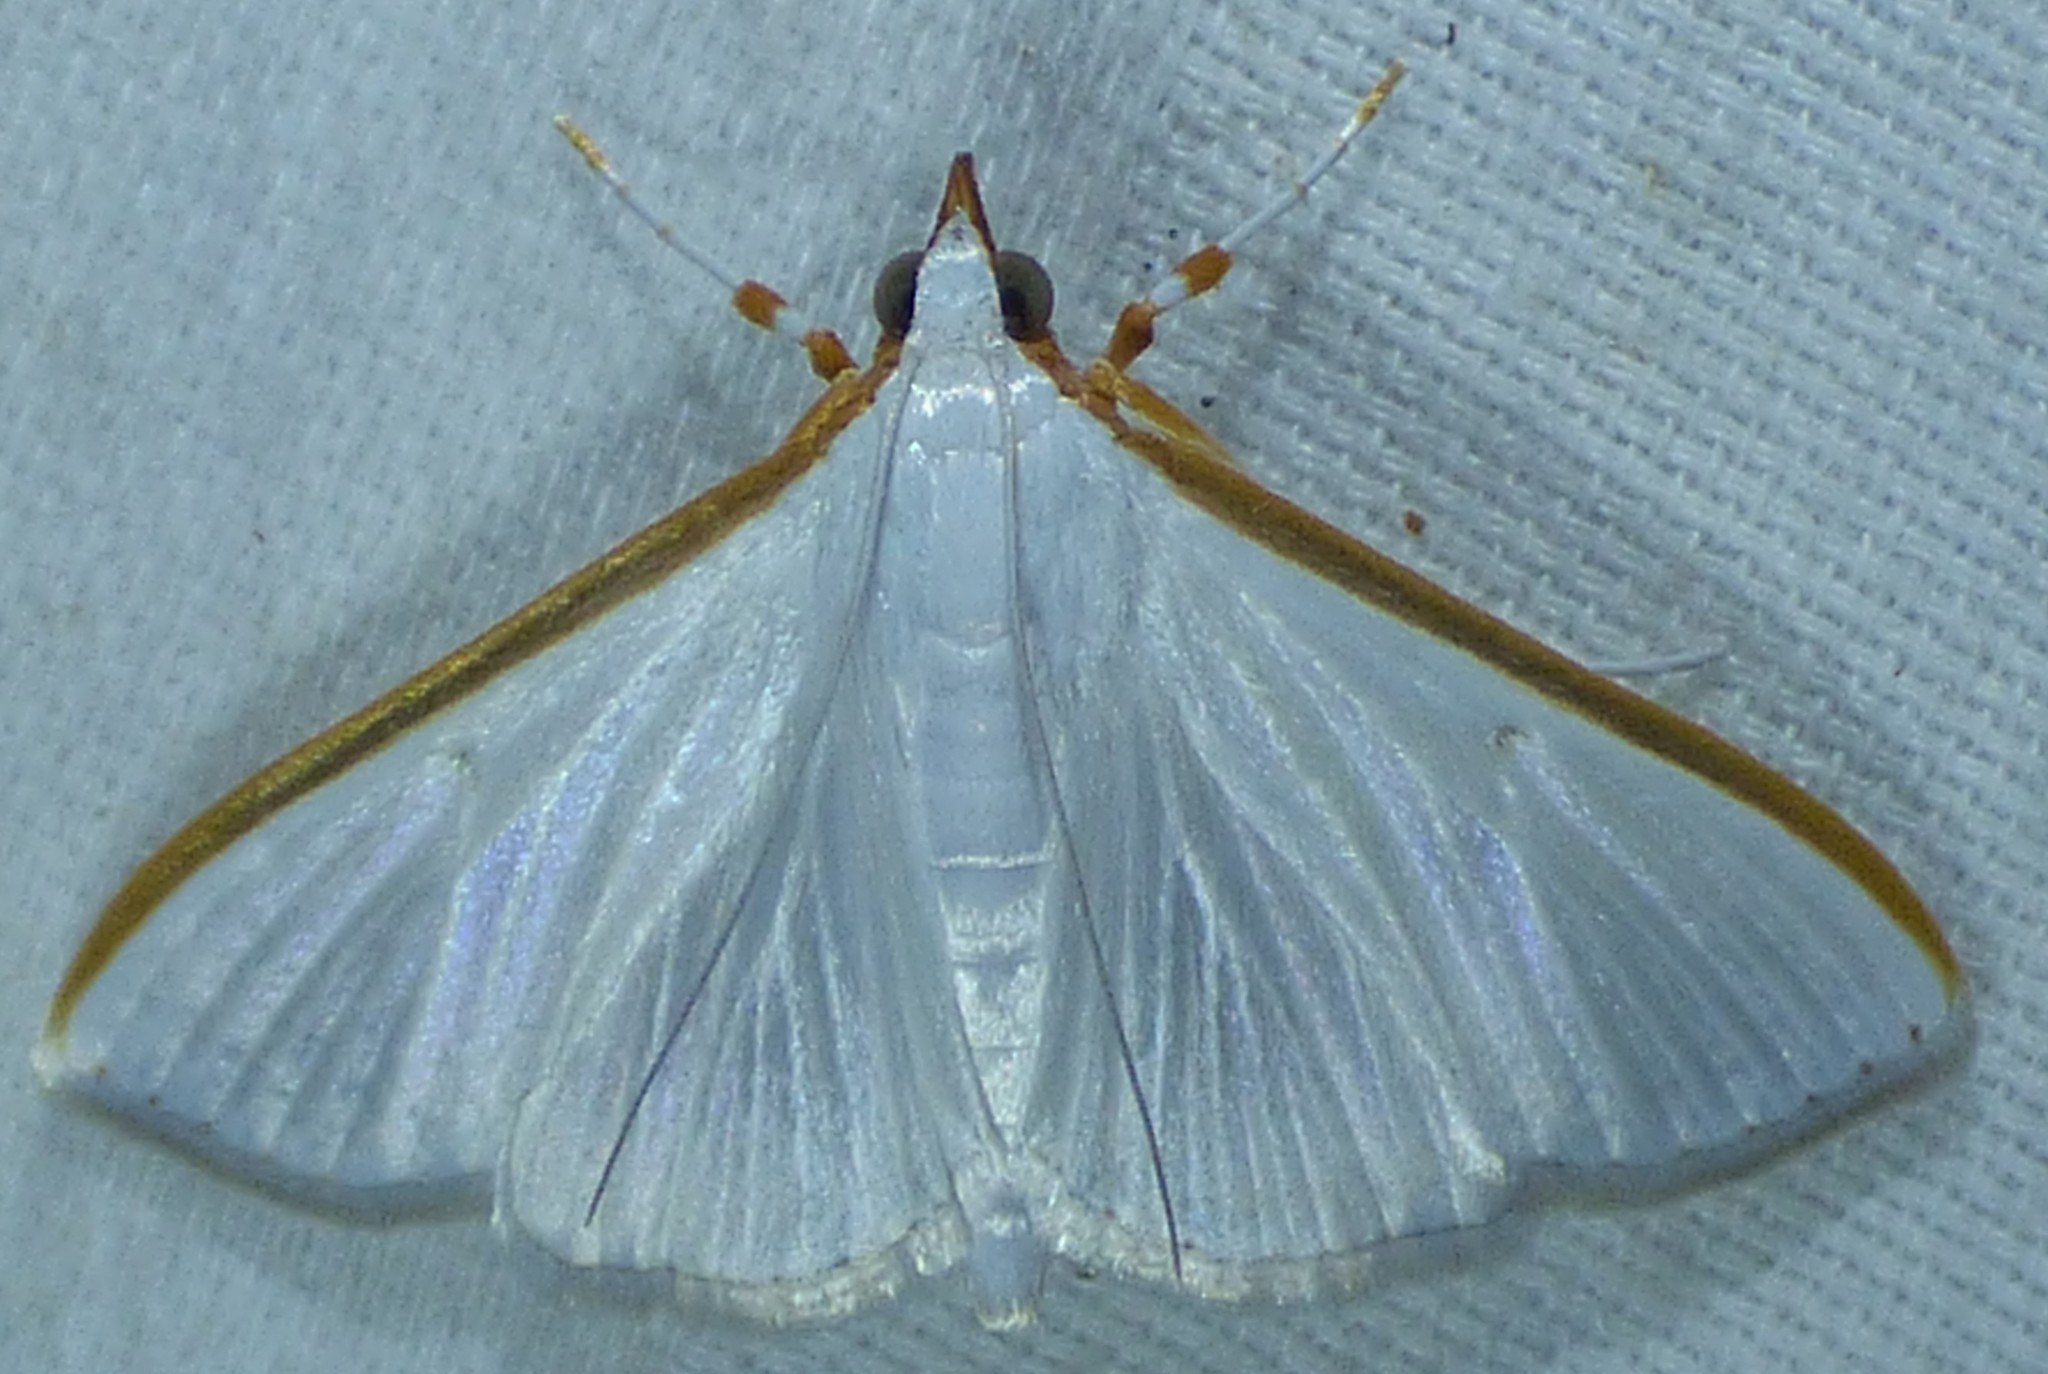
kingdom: Animalia
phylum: Arthropoda
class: Insecta
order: Lepidoptera
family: Crambidae
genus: Diaphania
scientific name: Diaphania costata
